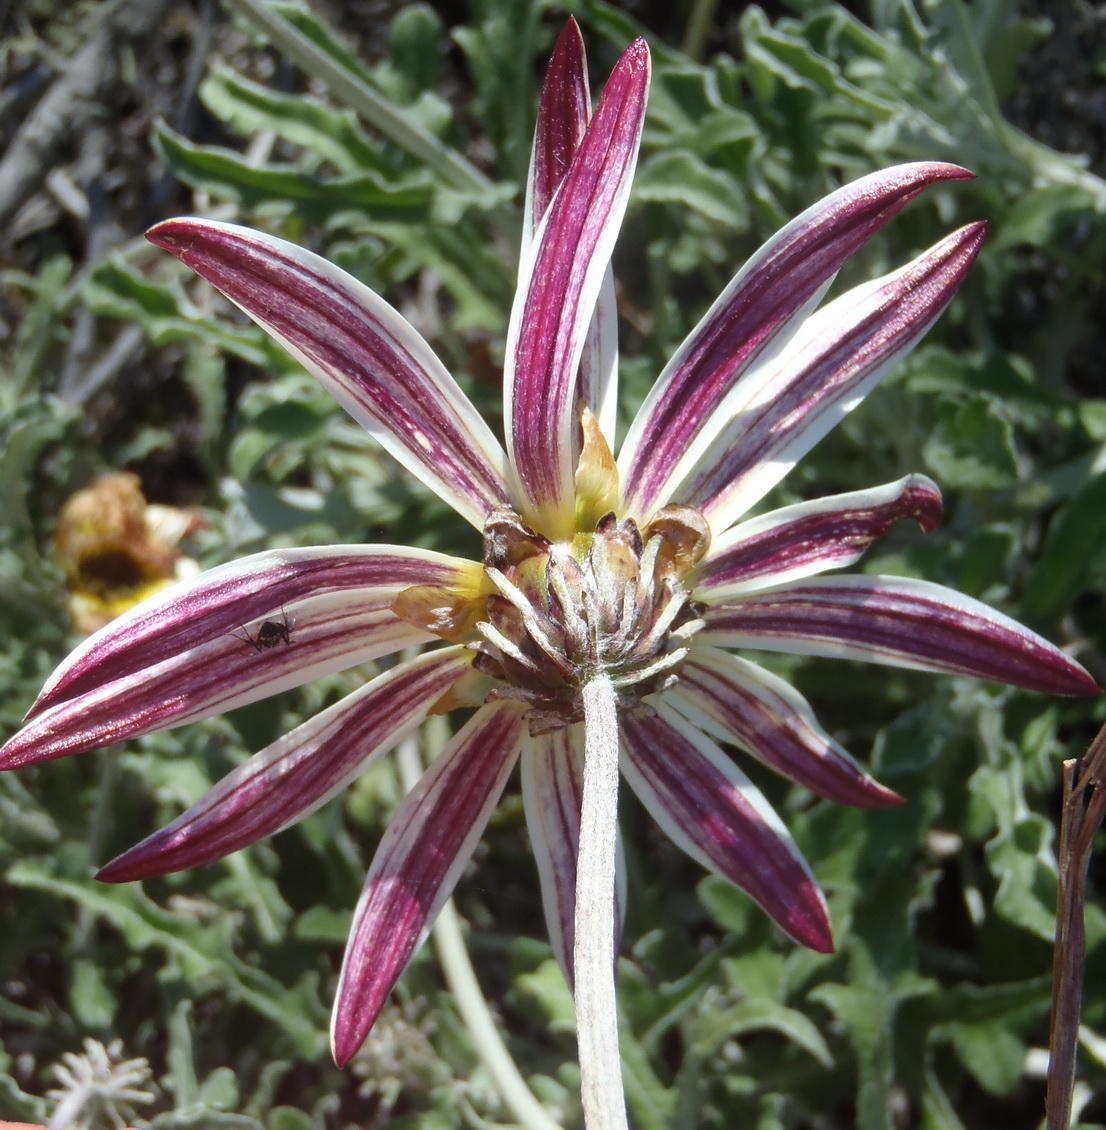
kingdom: Plantae
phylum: Tracheophyta
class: Magnoliopsida
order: Asterales
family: Asteraceae
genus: Arctotis
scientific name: Arctotis pinnatifida
